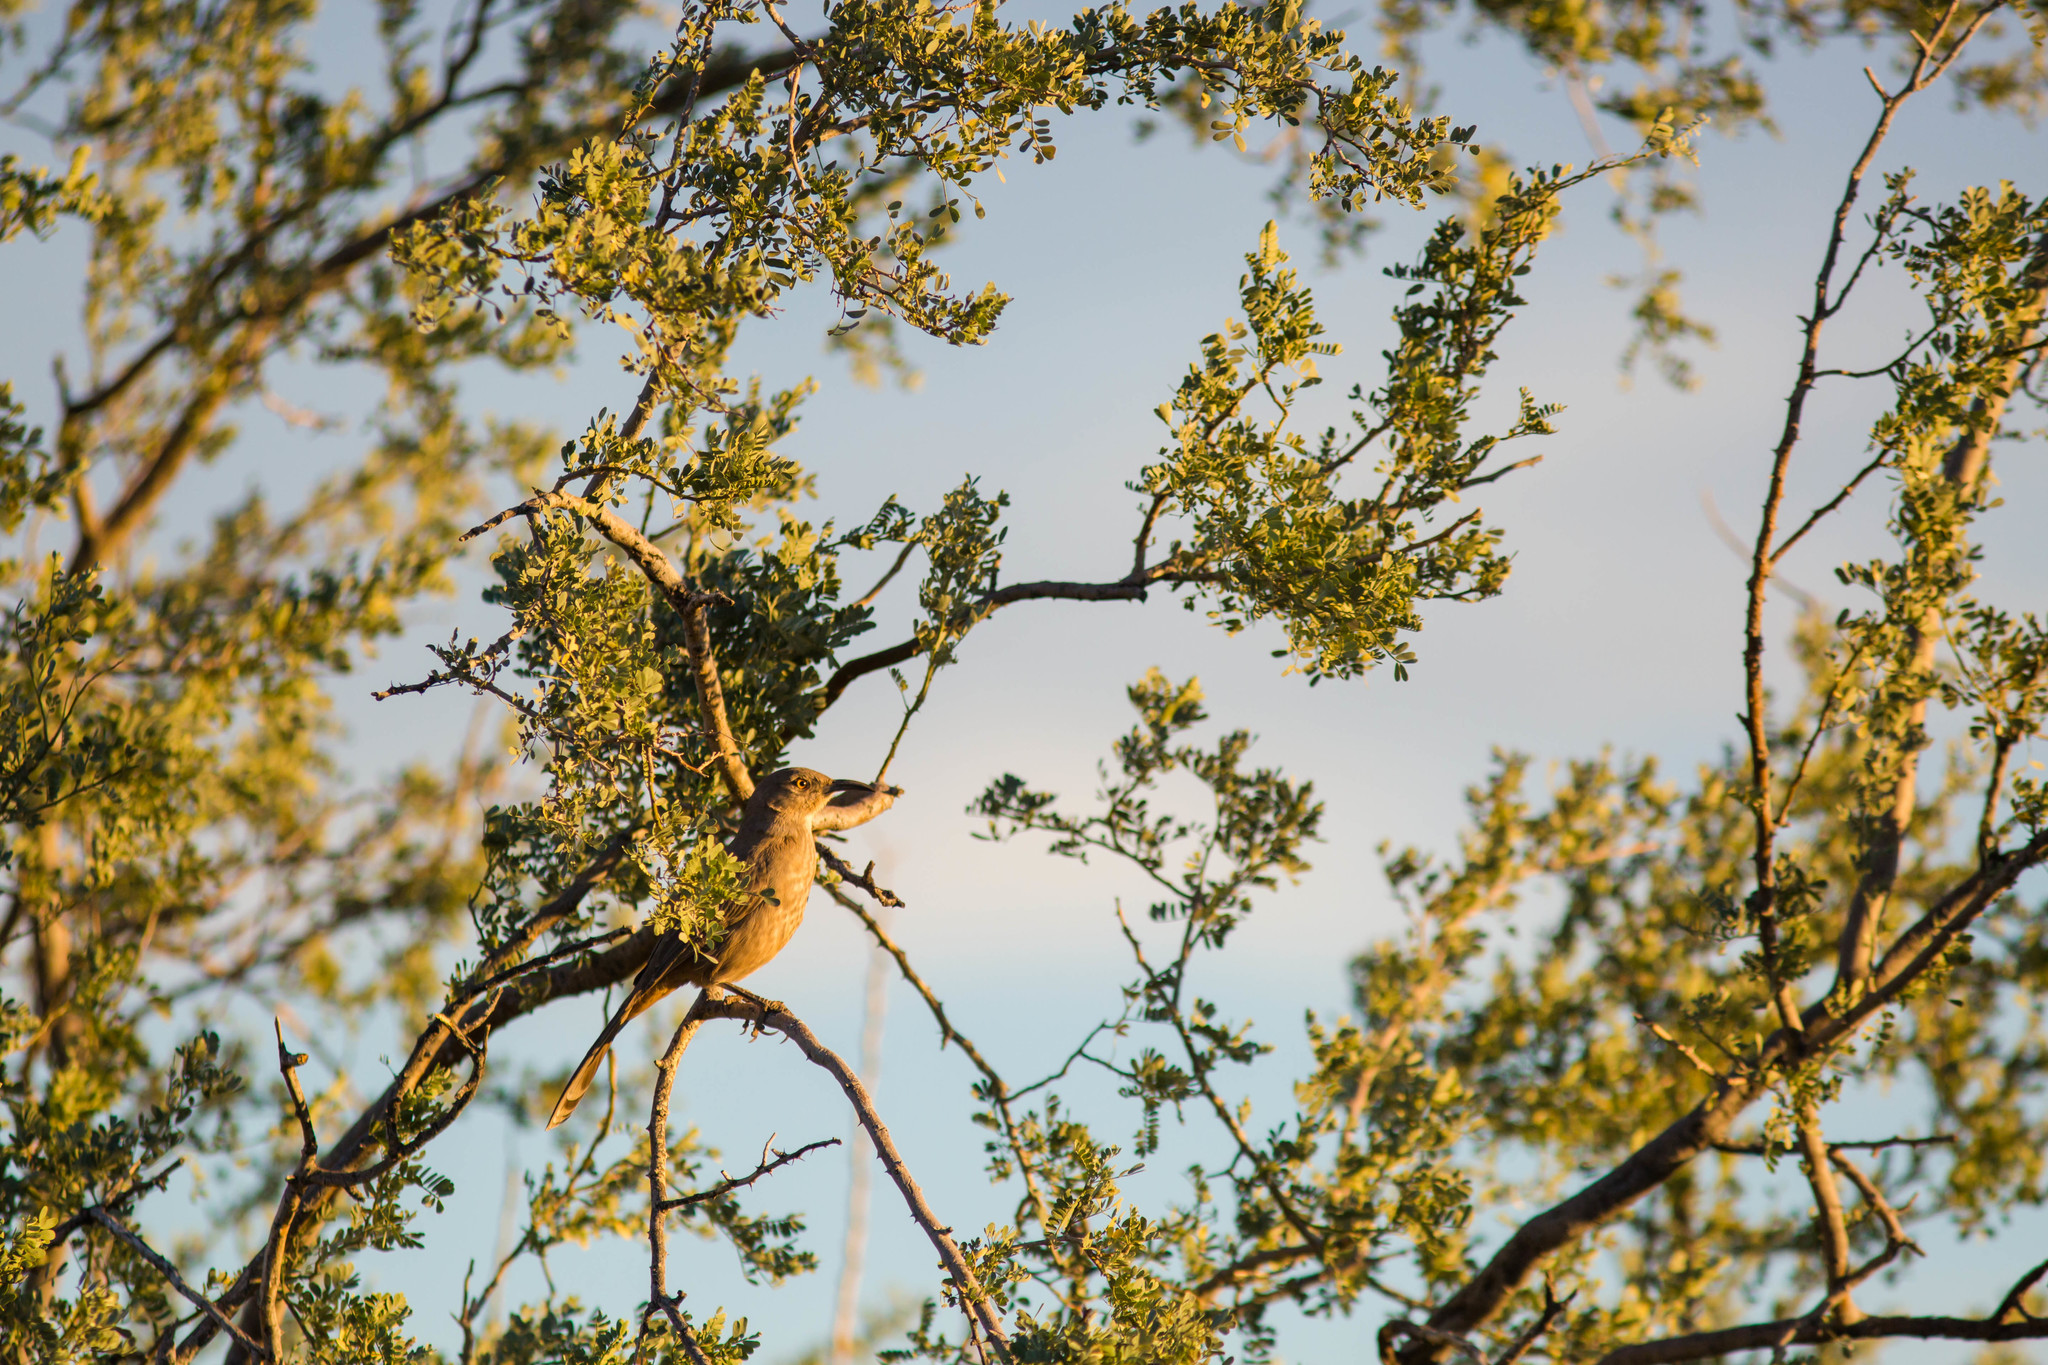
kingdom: Animalia
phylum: Chordata
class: Aves
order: Passeriformes
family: Mimidae
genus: Toxostoma
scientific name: Toxostoma curvirostre
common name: Curve-billed thrasher
